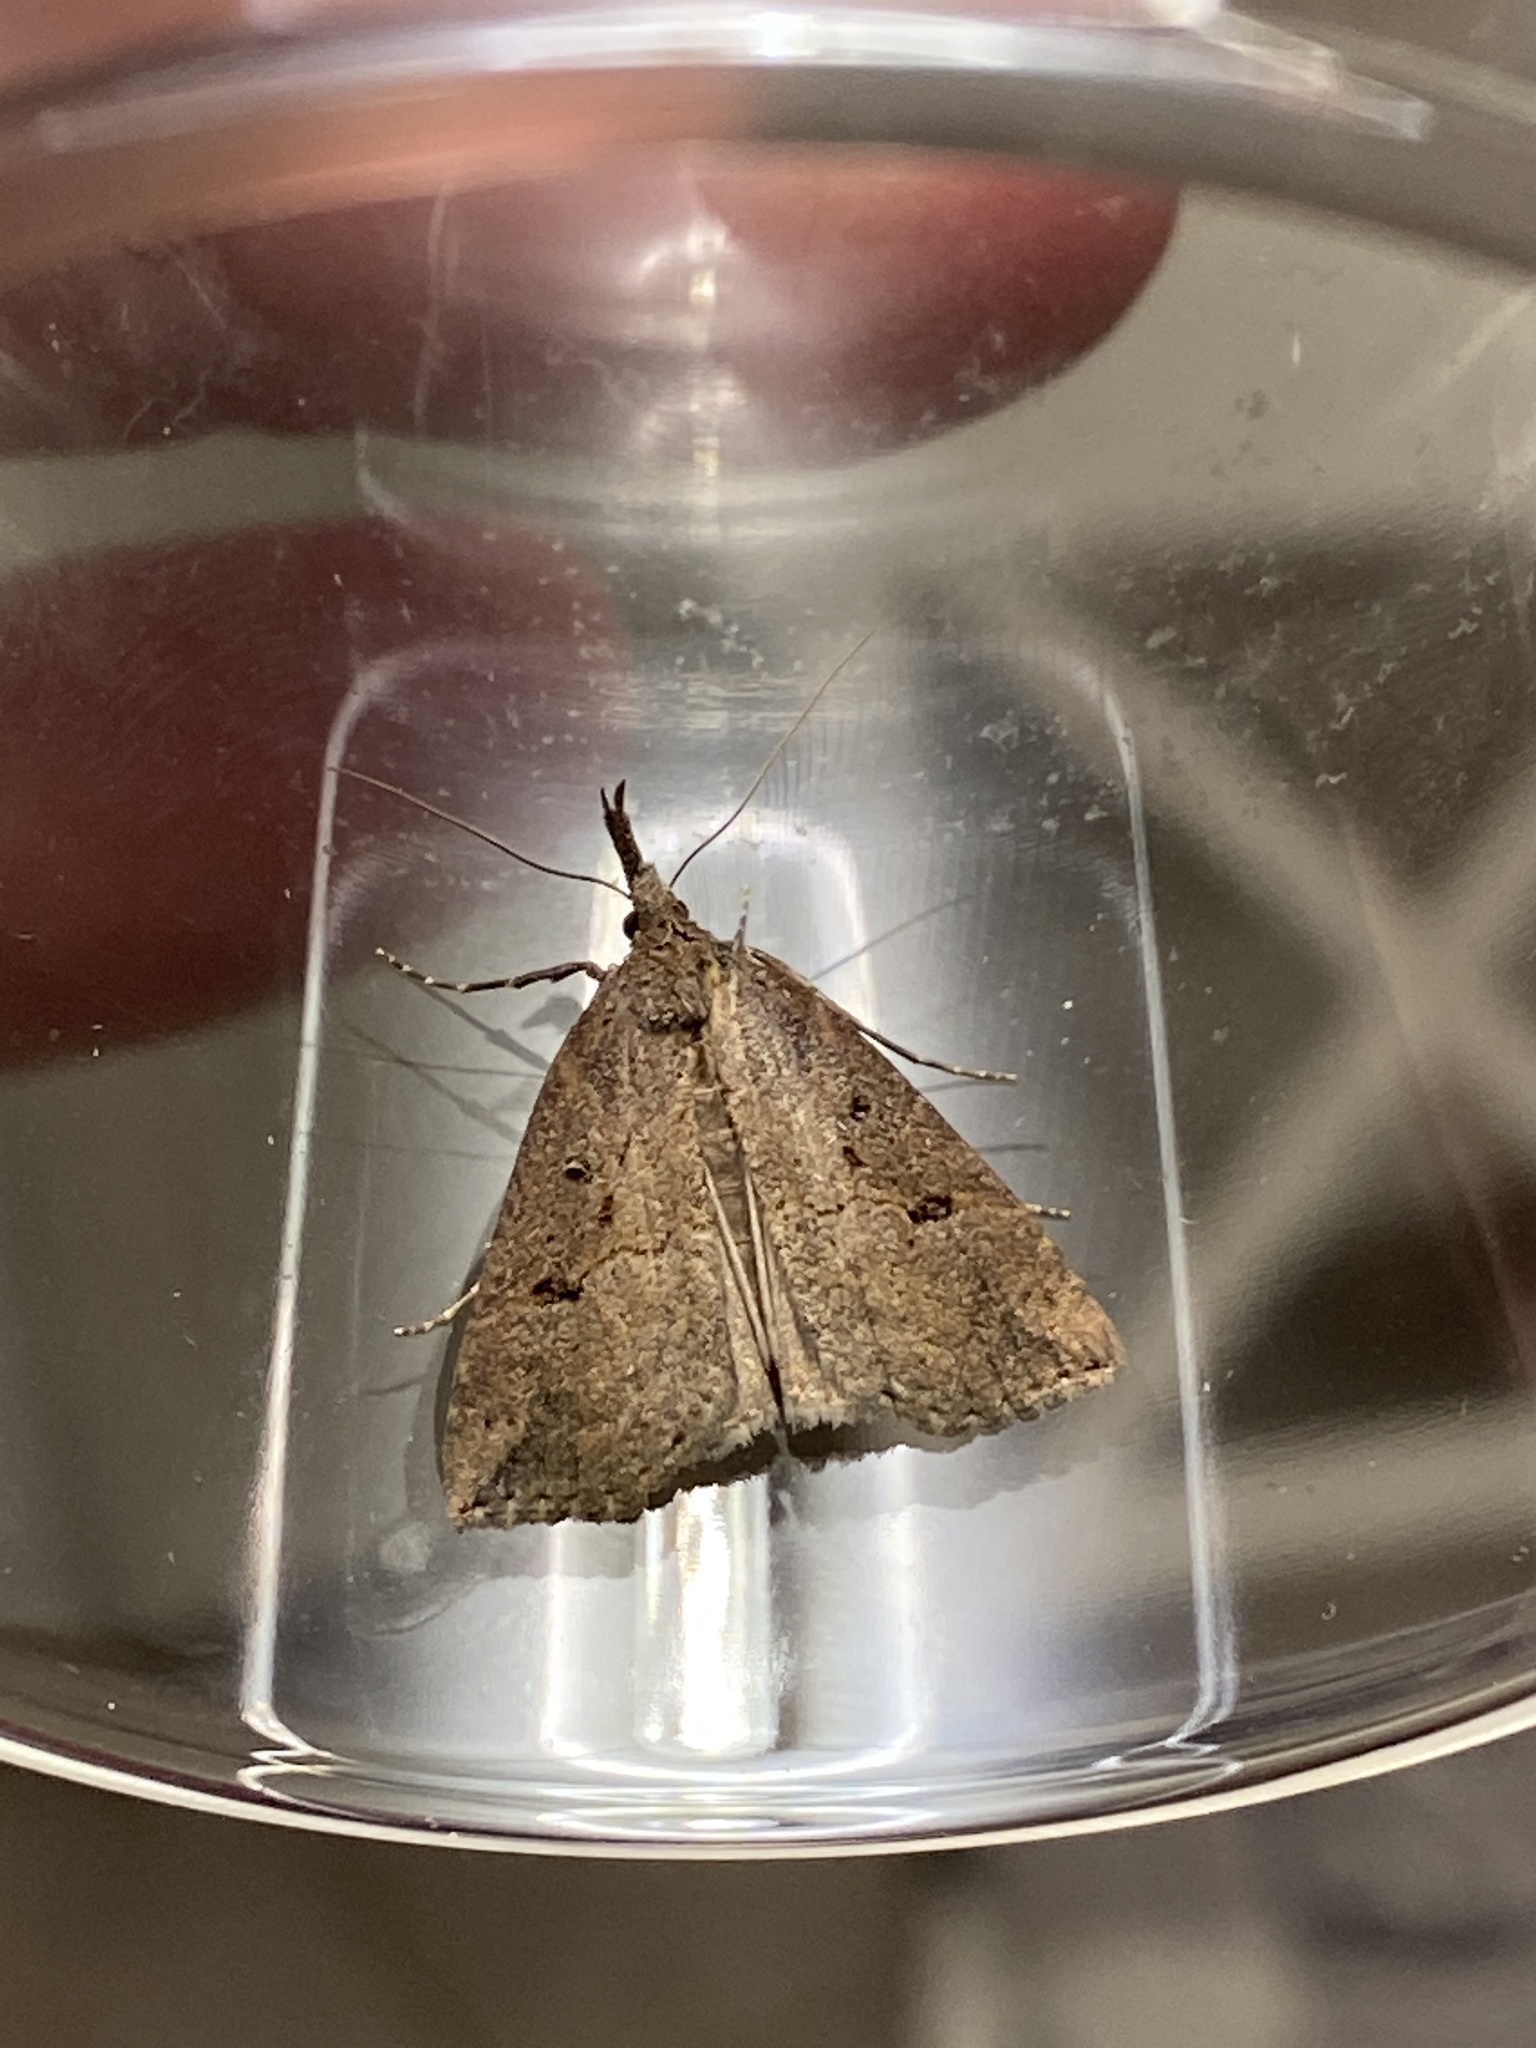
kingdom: Animalia
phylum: Arthropoda
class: Insecta
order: Lepidoptera
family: Erebidae
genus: Hypena
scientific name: Hypena rostralis
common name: Buttoned snout
